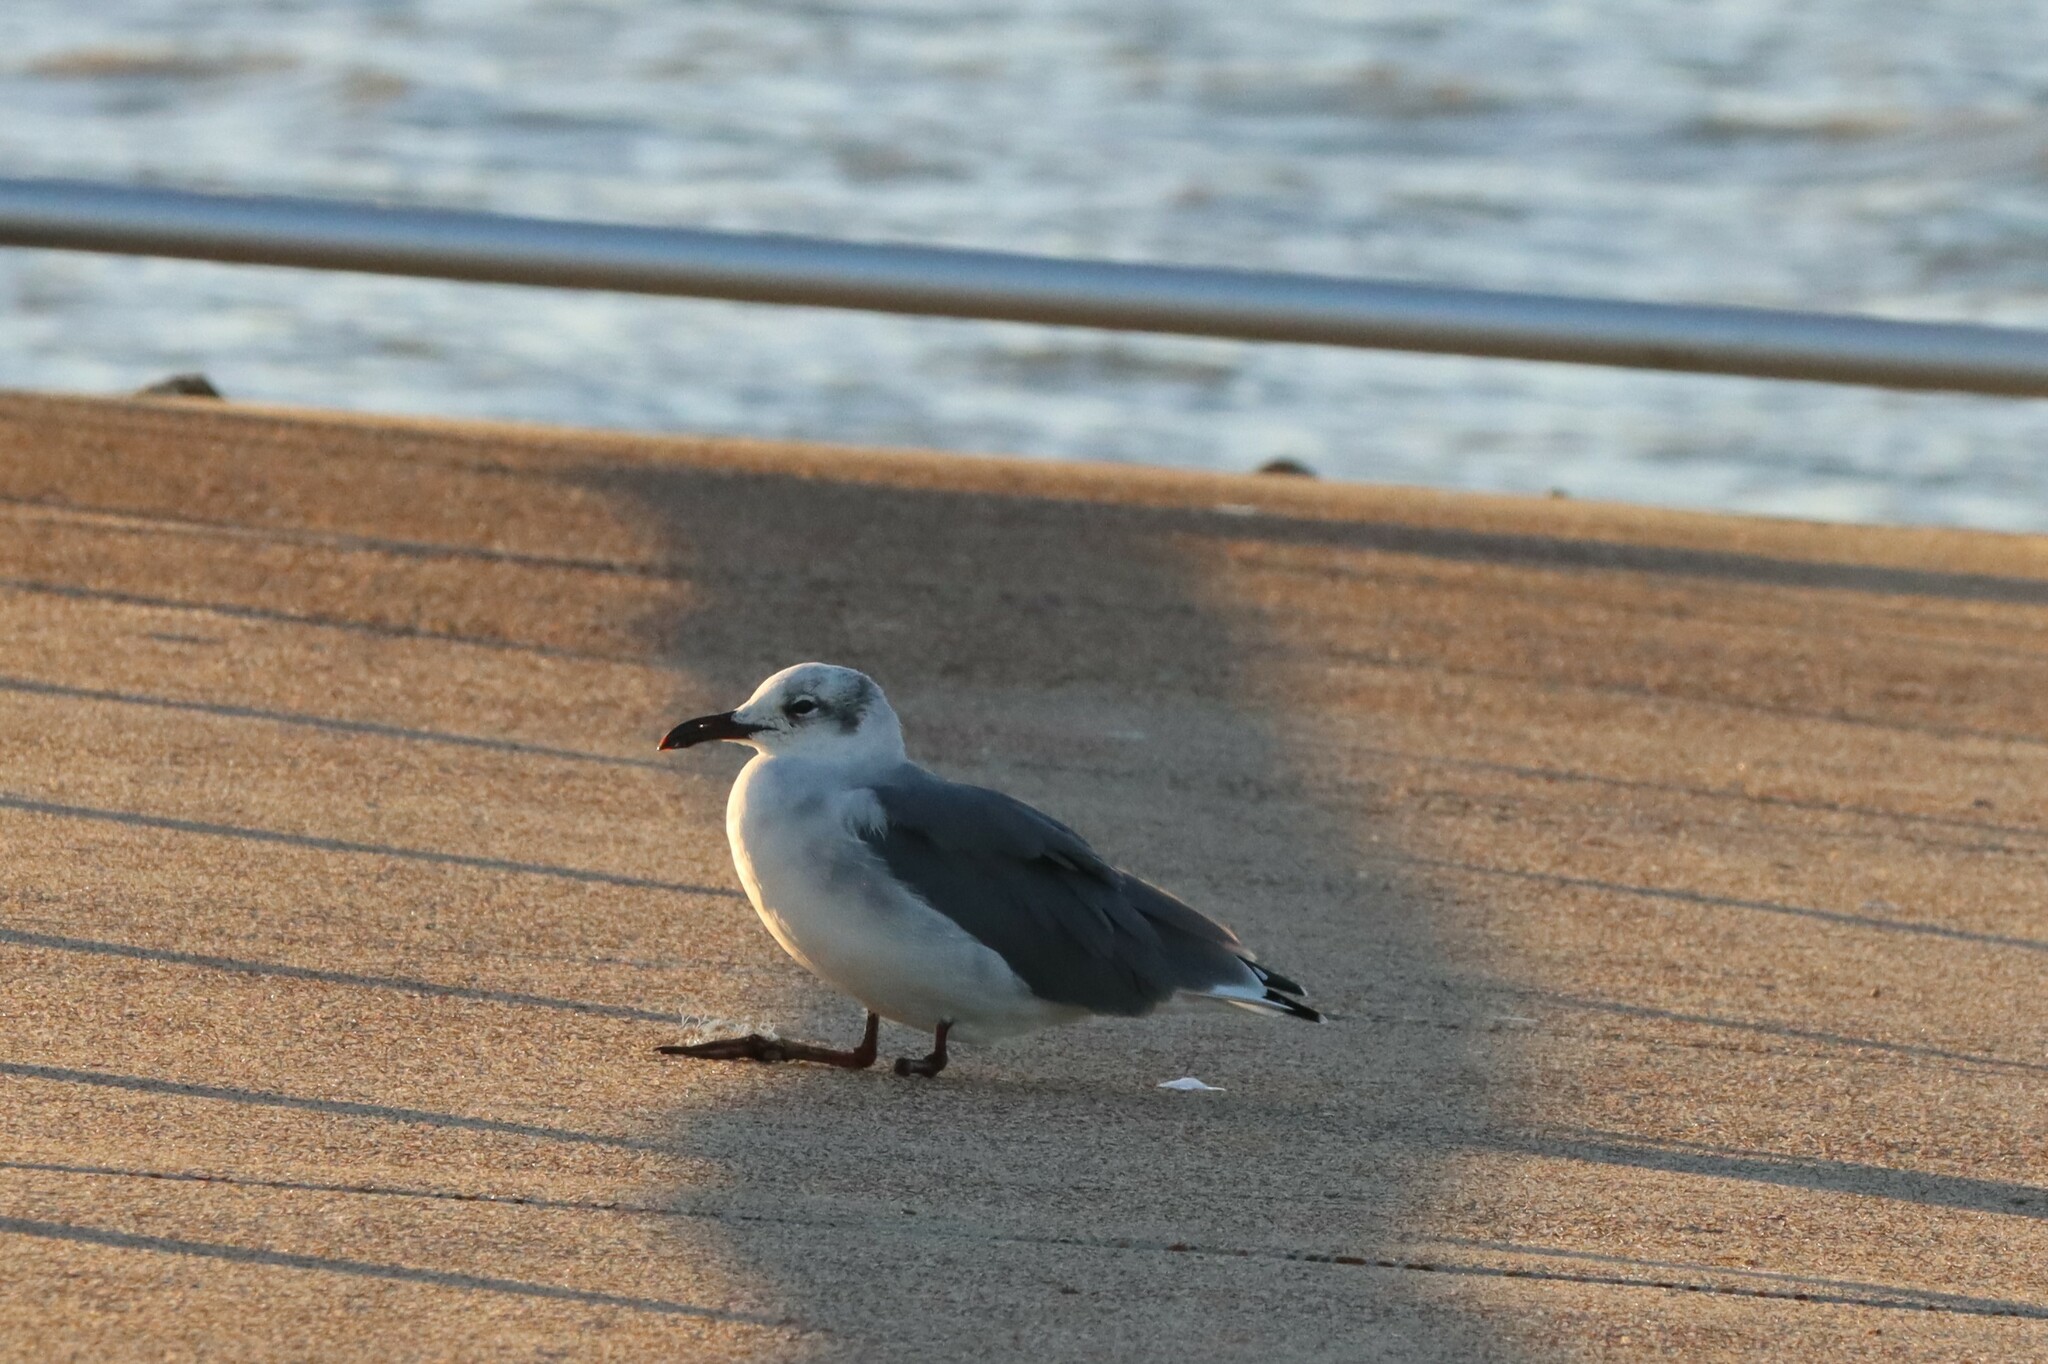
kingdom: Animalia
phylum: Chordata
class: Aves
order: Charadriiformes
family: Laridae
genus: Leucophaeus
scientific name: Leucophaeus atricilla
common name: Laughing gull
